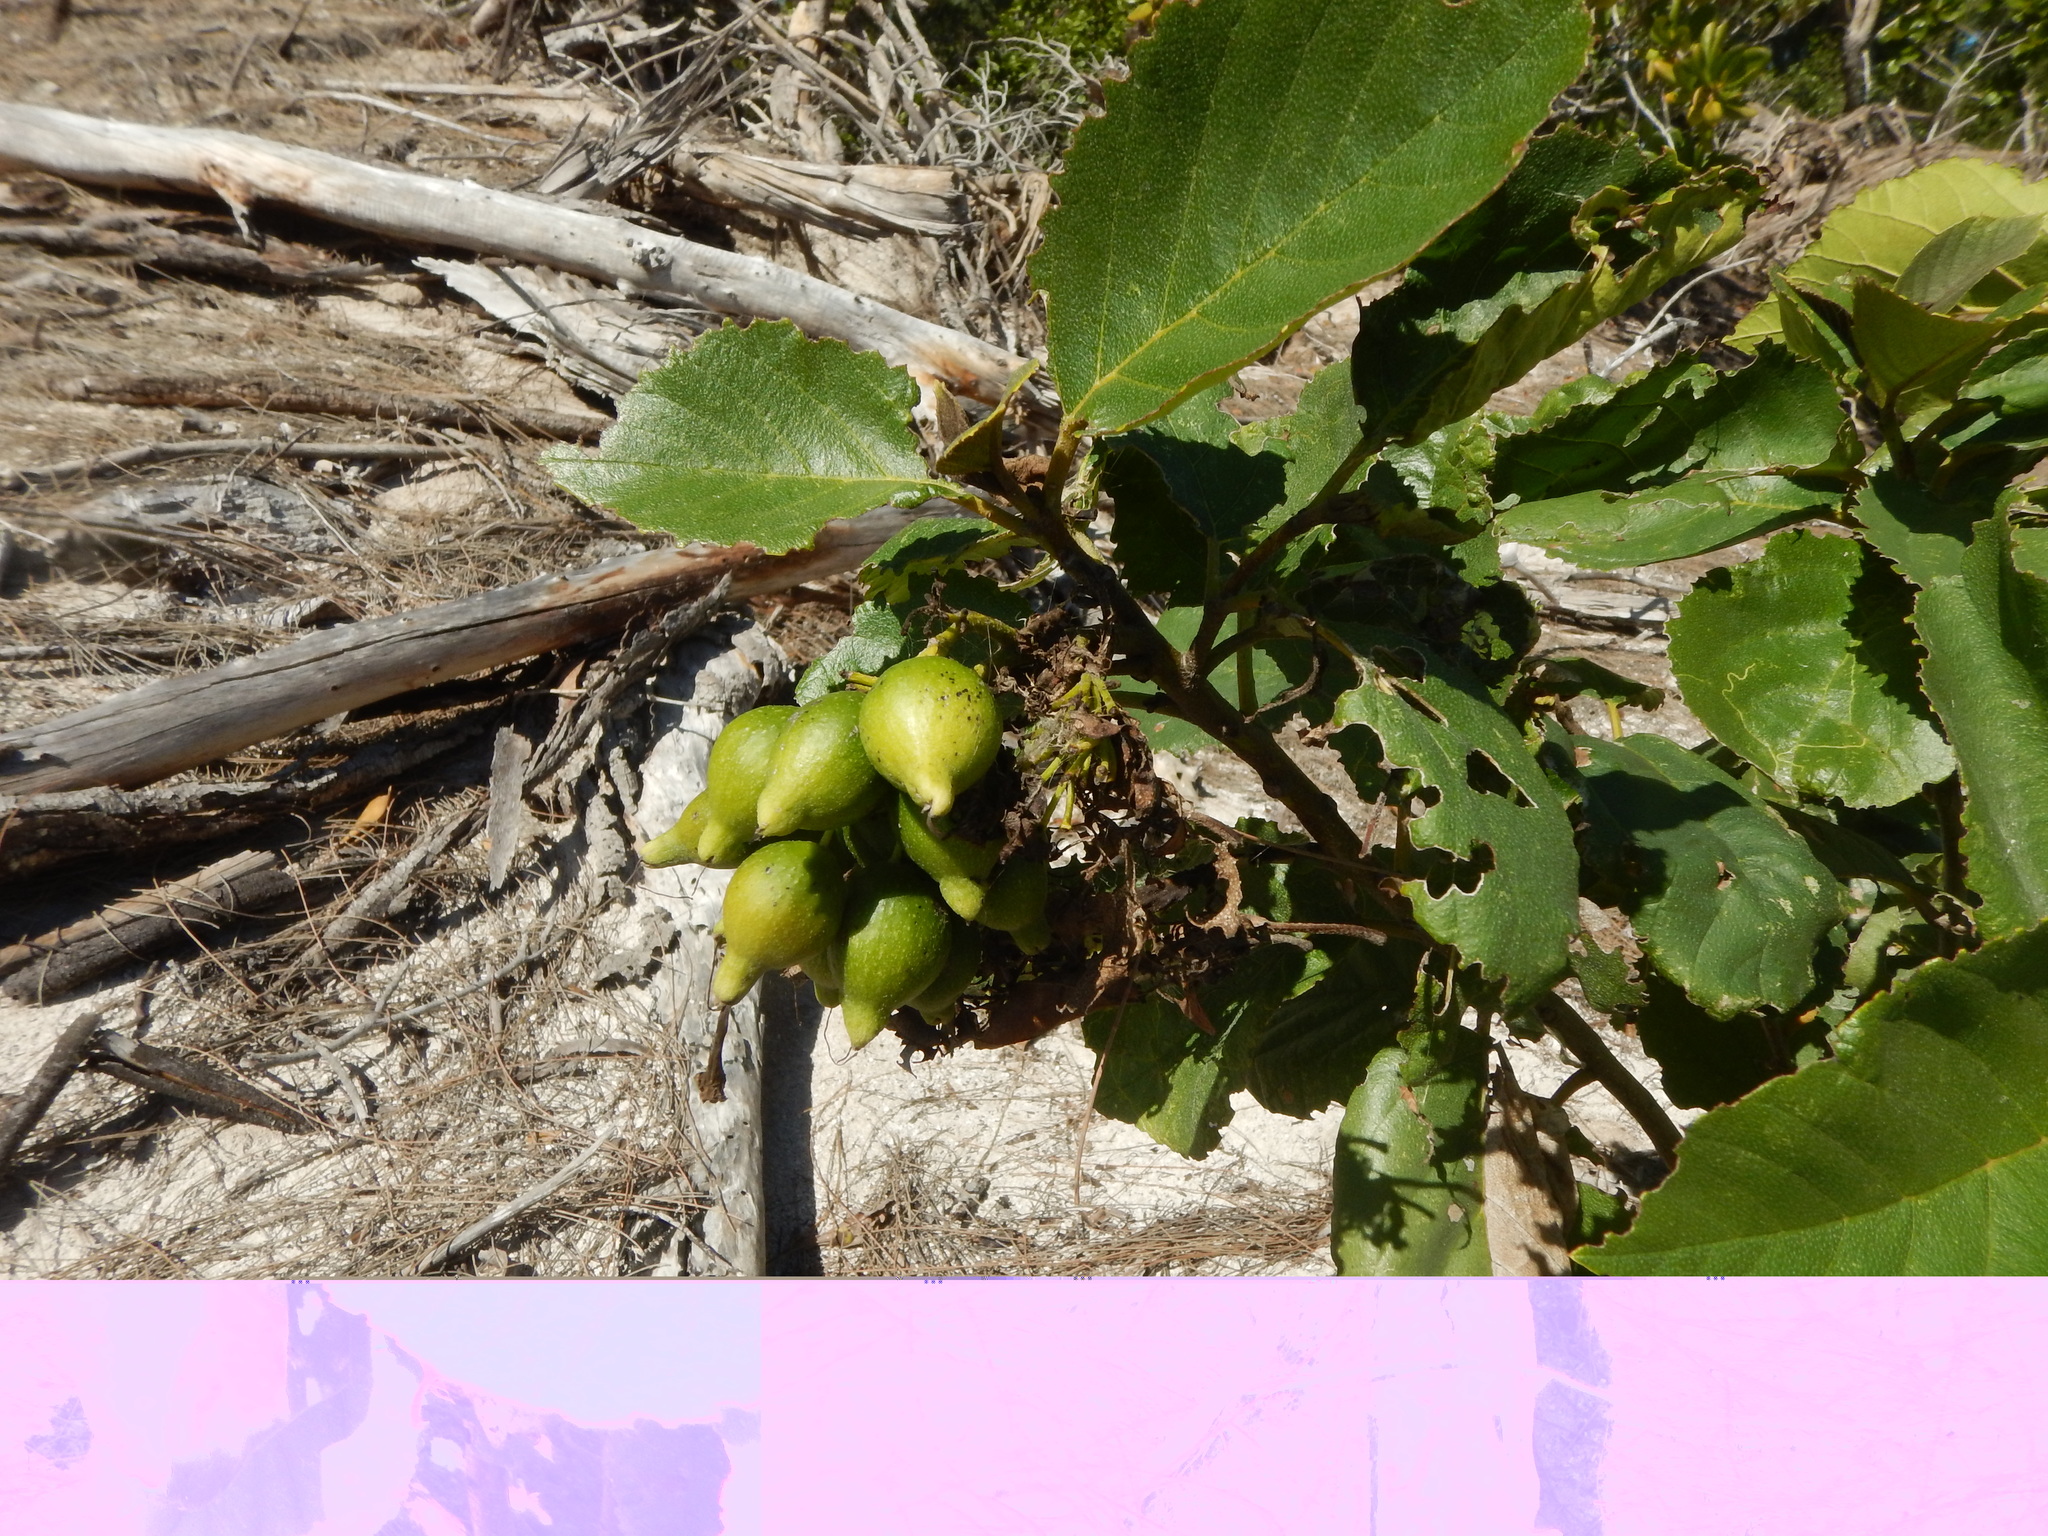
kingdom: Plantae
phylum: Tracheophyta
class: Magnoliopsida
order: Boraginales
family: Cordiaceae
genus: Cordia
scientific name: Cordia sebestena
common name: Largeleaf geigertree
